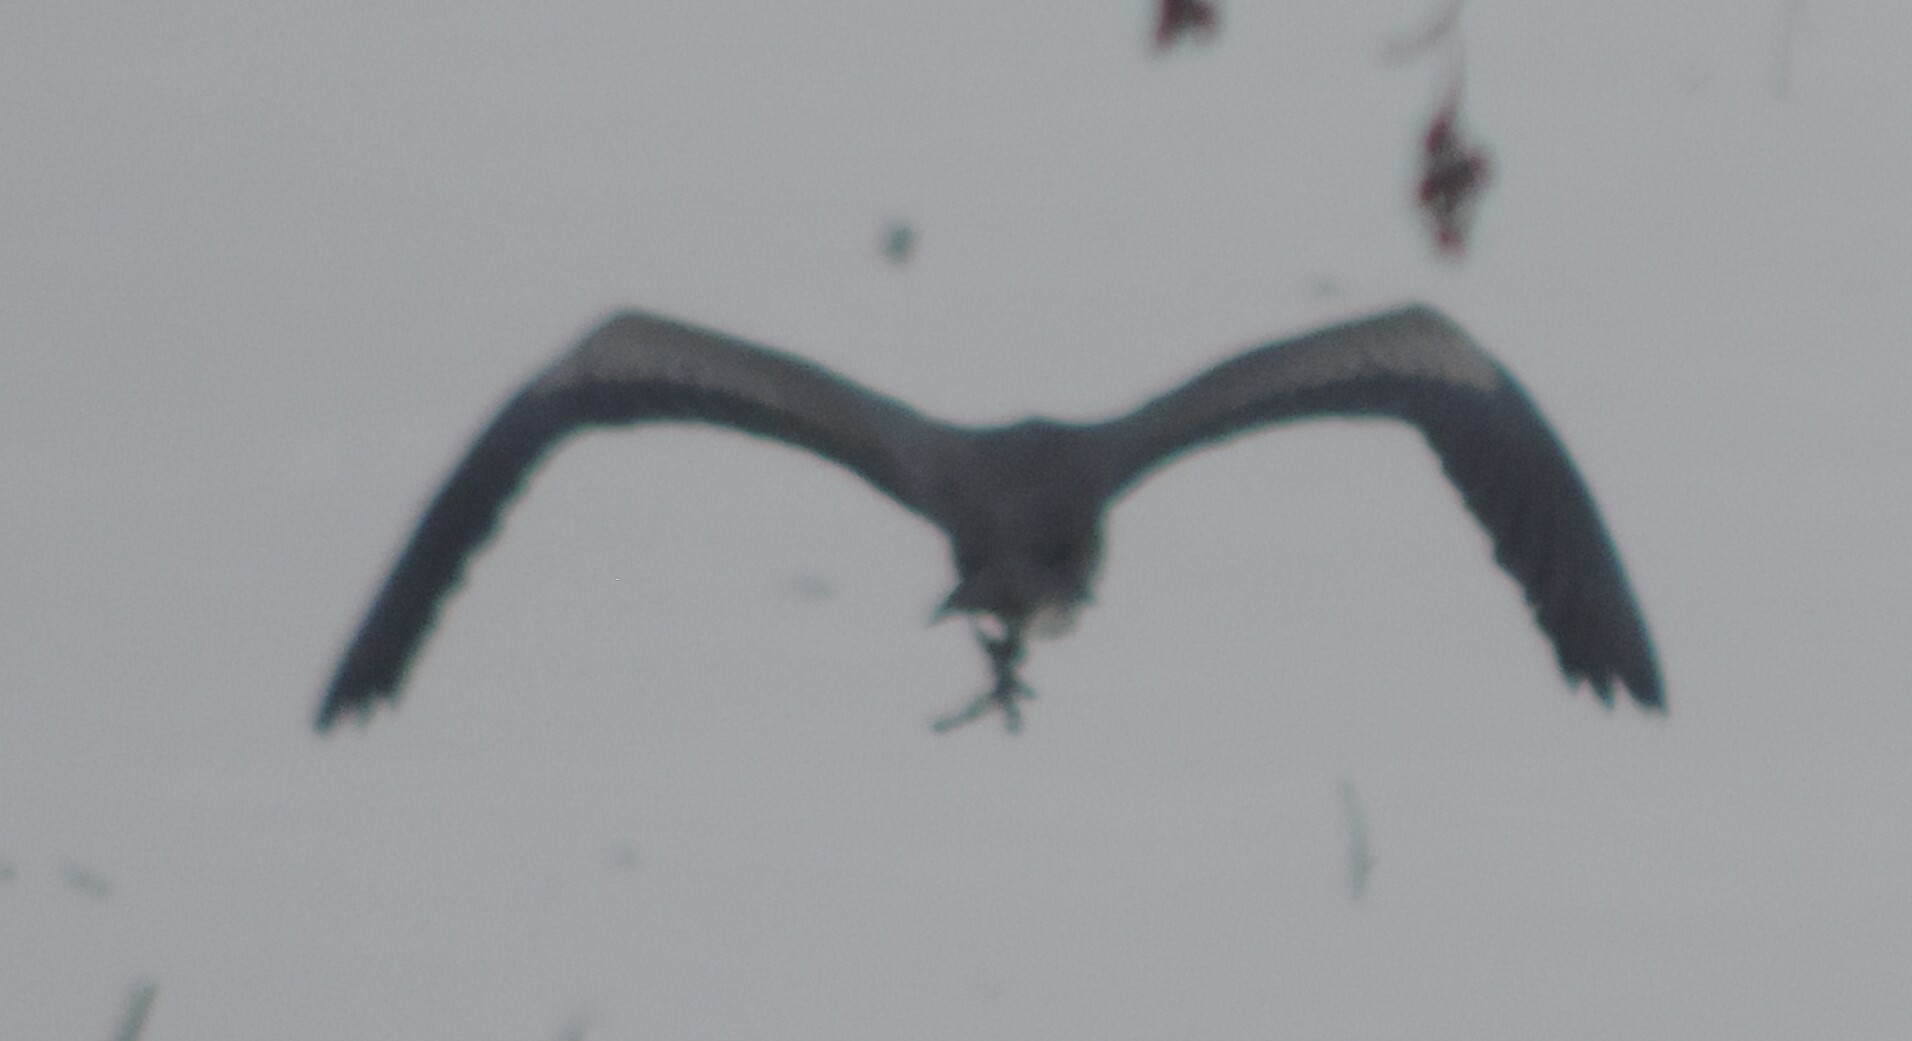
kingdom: Animalia
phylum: Chordata
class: Aves
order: Pelecaniformes
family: Ardeidae
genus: Ardea
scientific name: Ardea herodias
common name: Great blue heron
